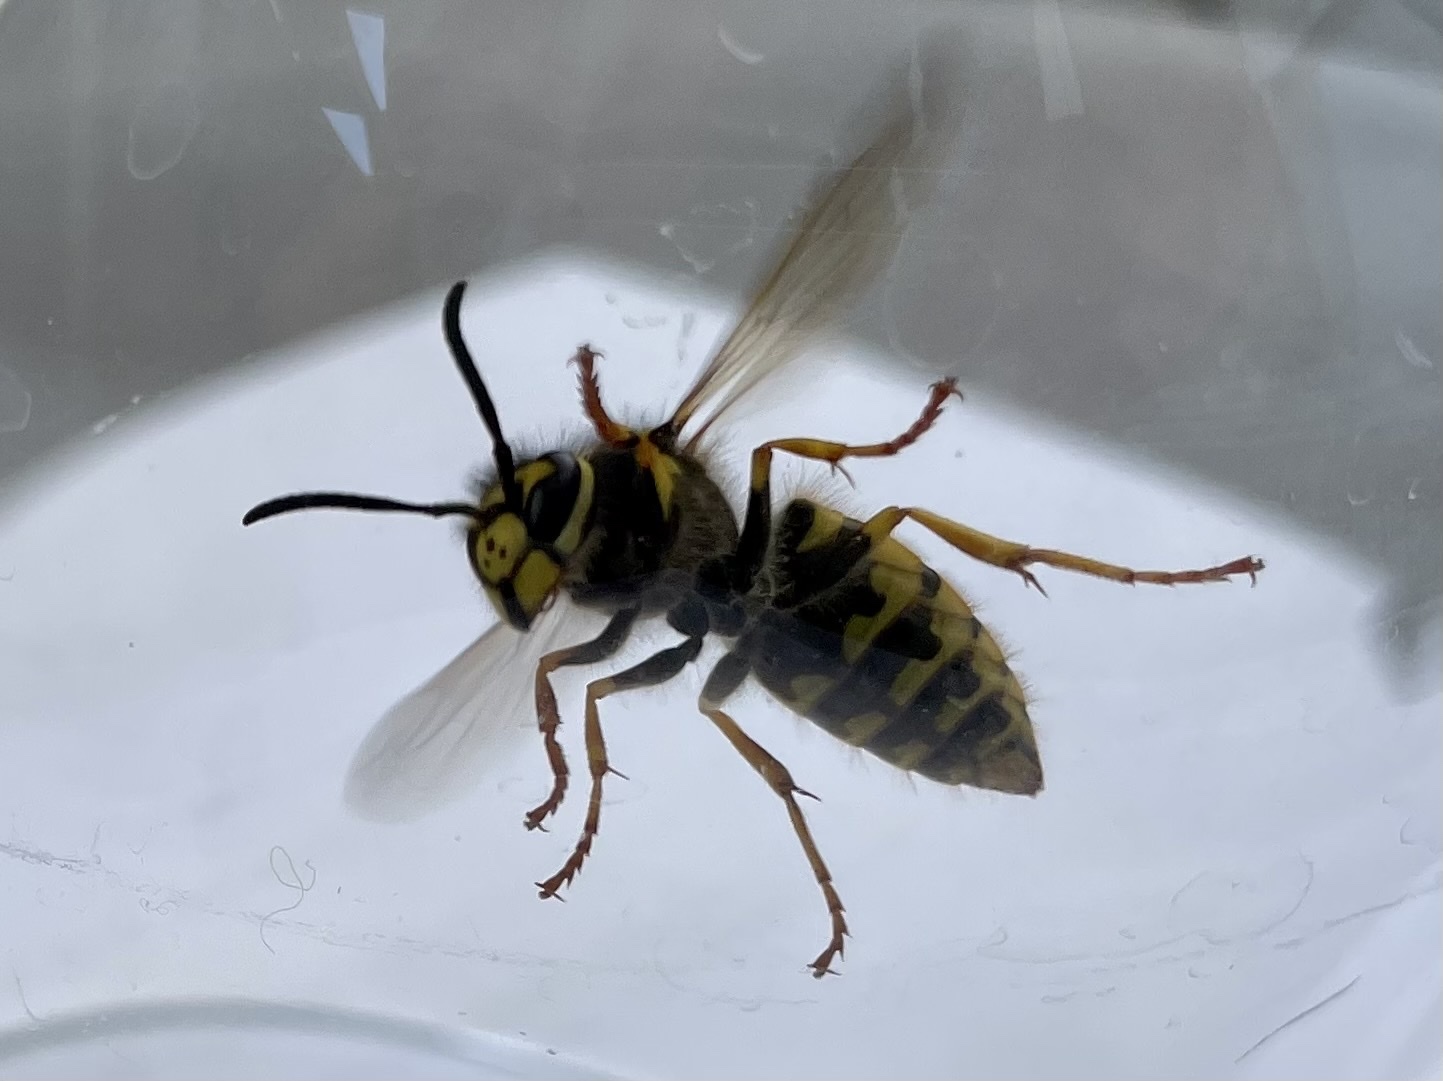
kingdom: Animalia
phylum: Arthropoda
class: Insecta
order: Hymenoptera
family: Vespidae
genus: Vespula
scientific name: Vespula germanica
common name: German wasp
